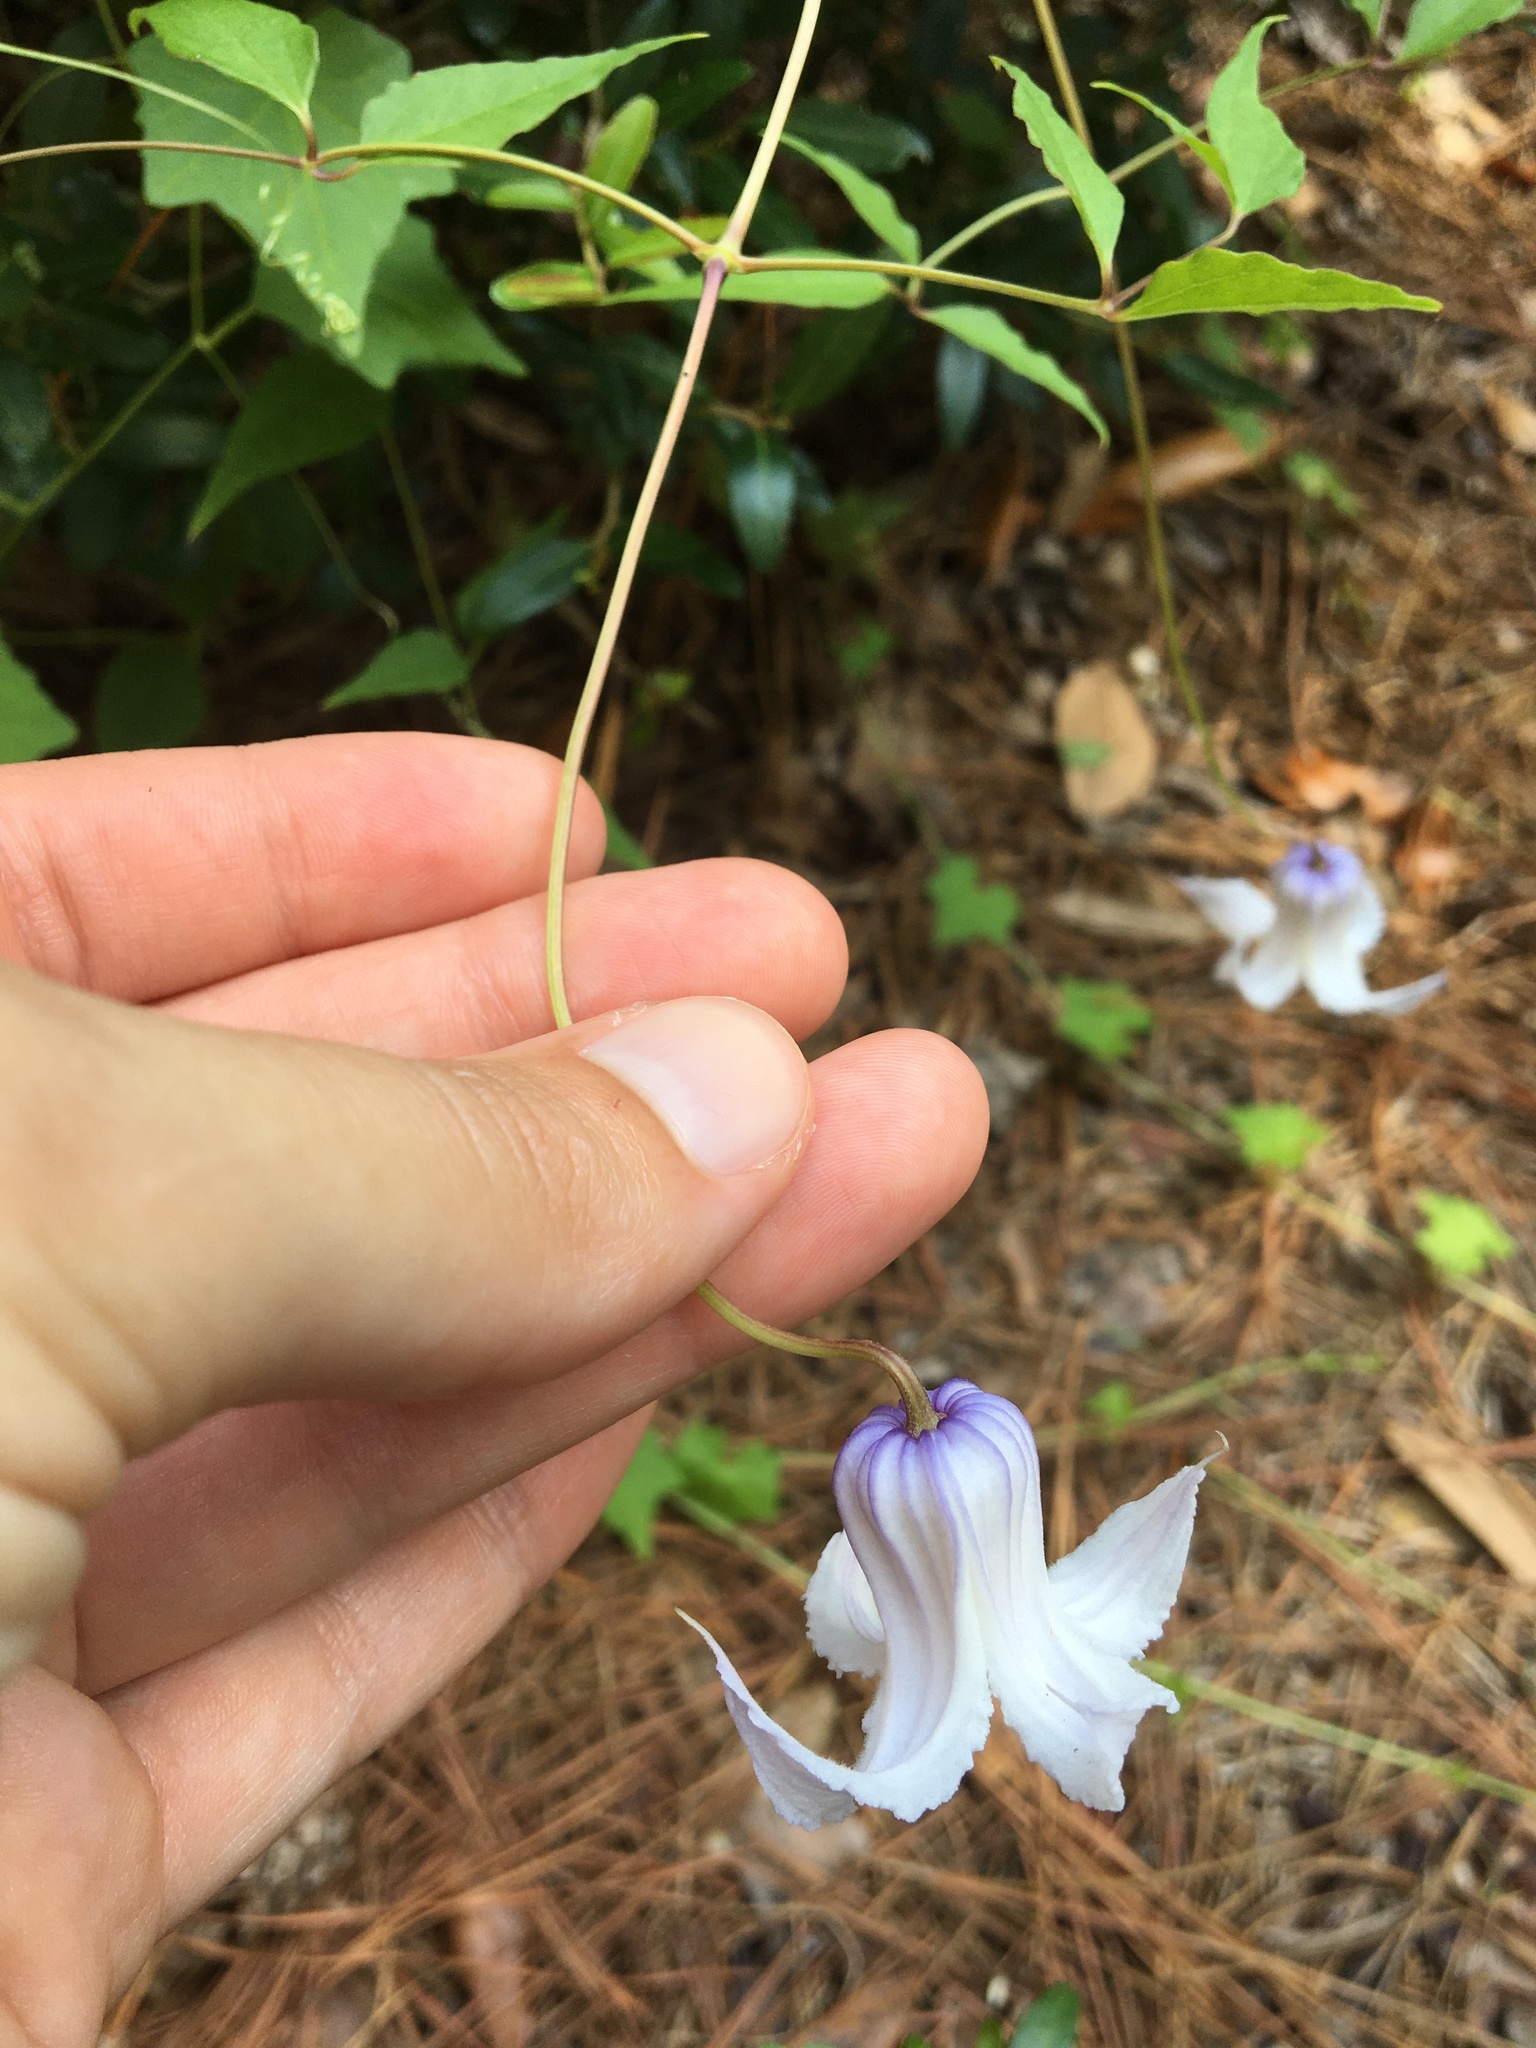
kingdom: Plantae
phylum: Tracheophyta
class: Magnoliopsida
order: Ranunculales
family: Ranunculaceae
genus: Clematis
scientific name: Clematis crispa
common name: Curly clematis
